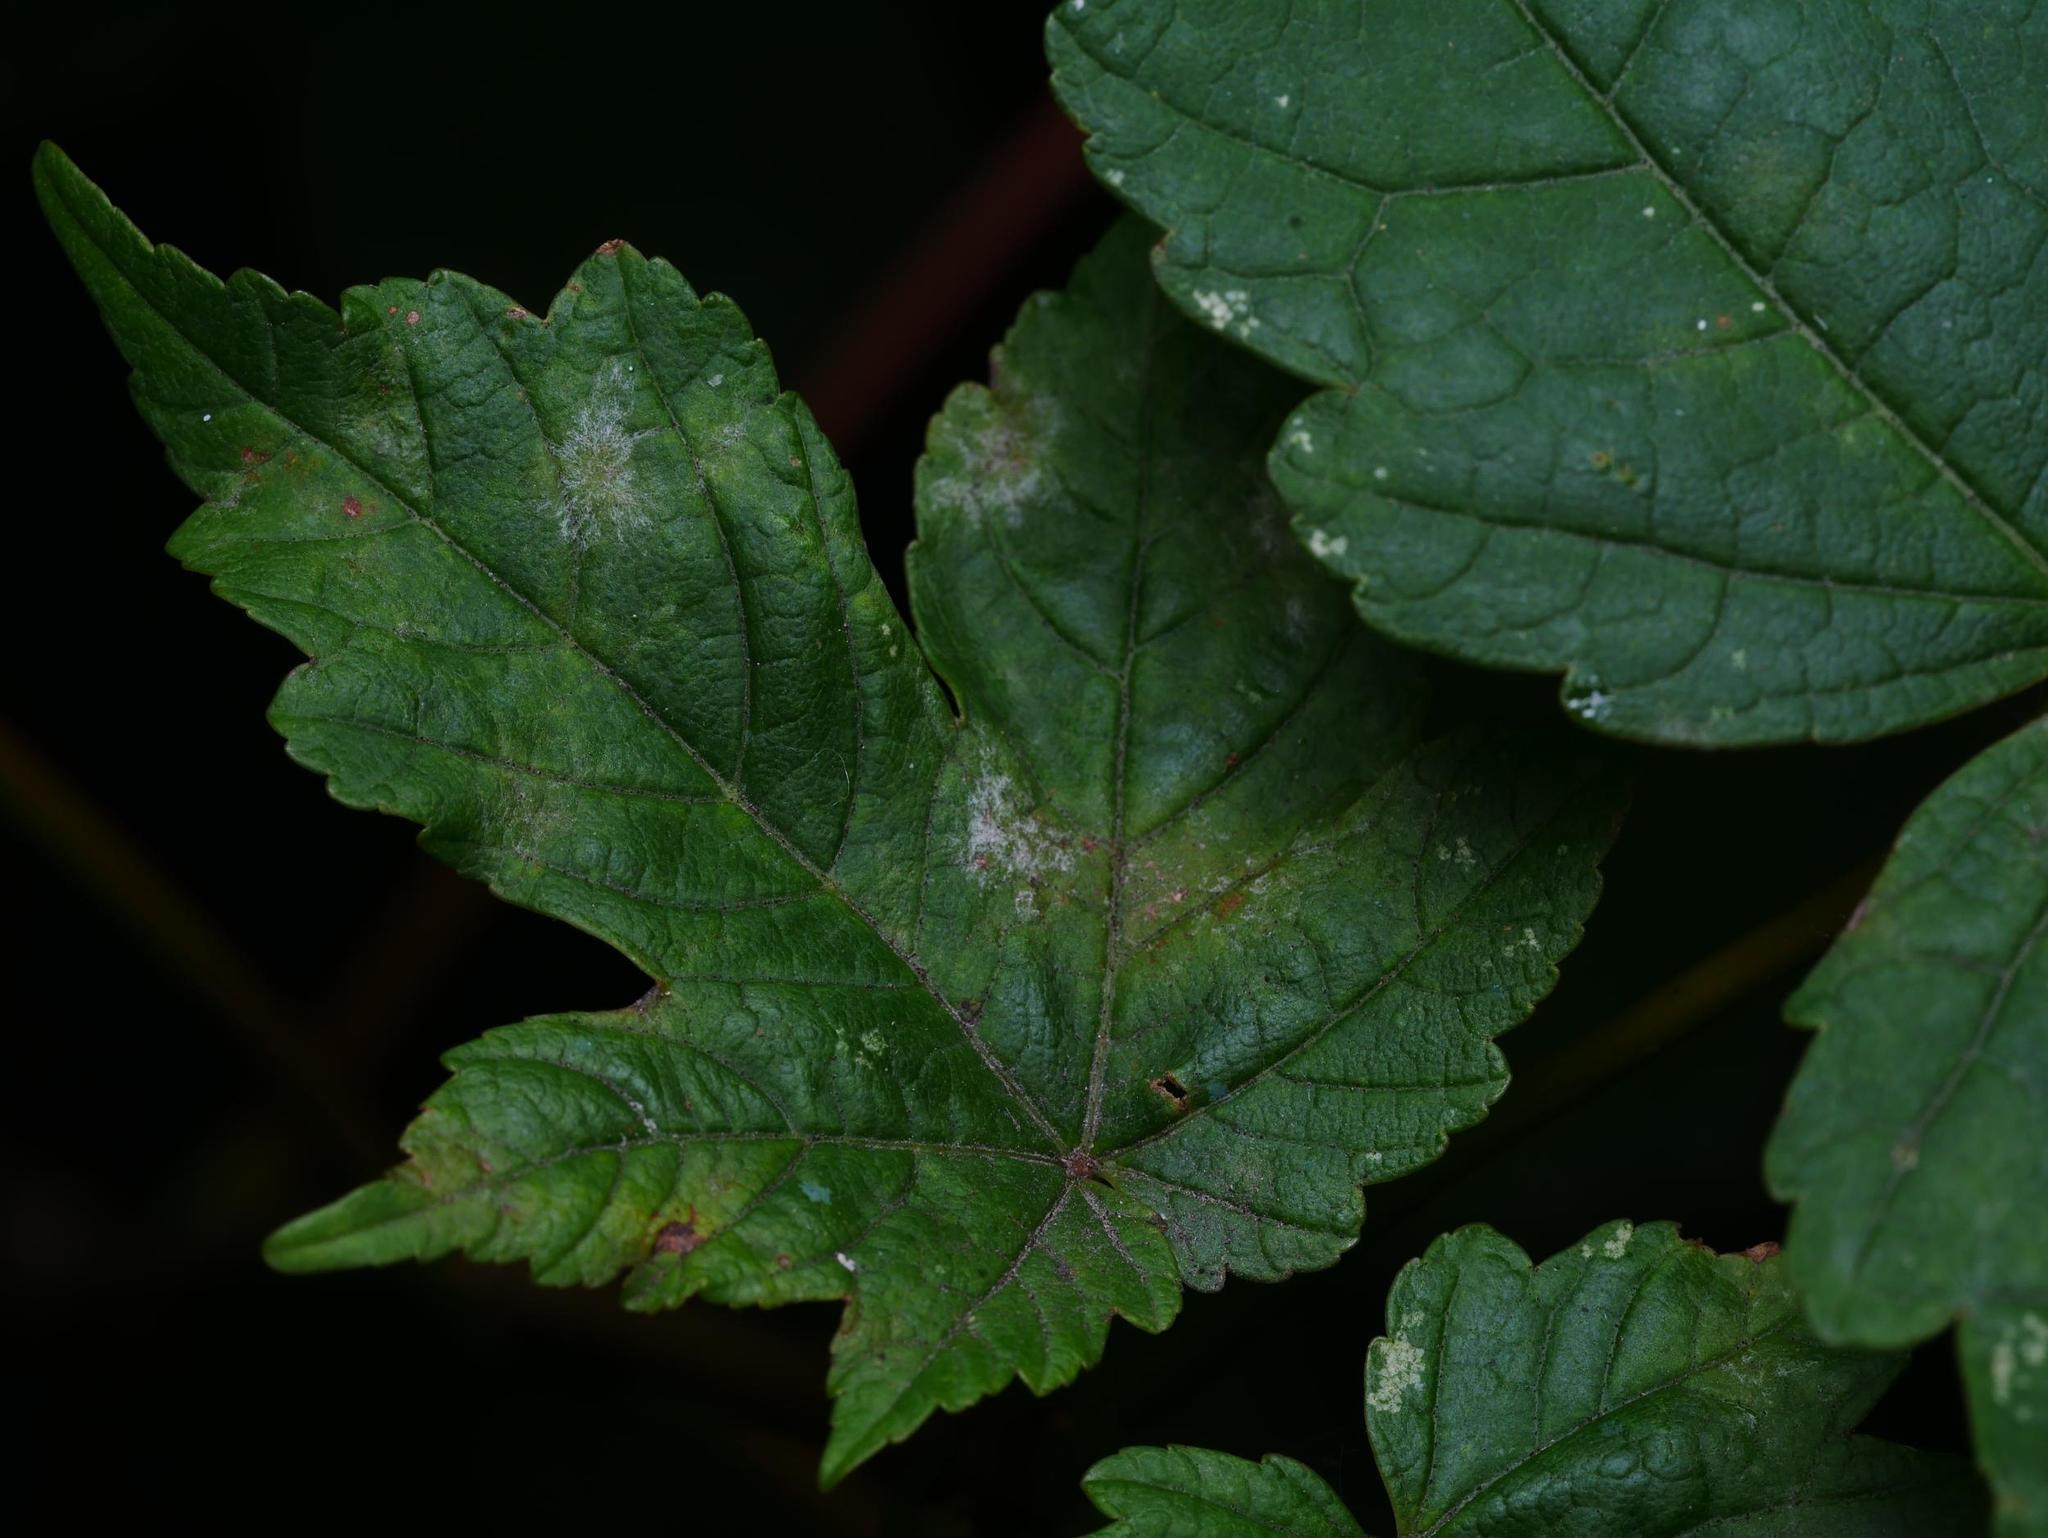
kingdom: Plantae
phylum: Tracheophyta
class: Magnoliopsida
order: Sapindales
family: Sapindaceae
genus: Acer
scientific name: Acer pseudoplatanus
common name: Sycamore
